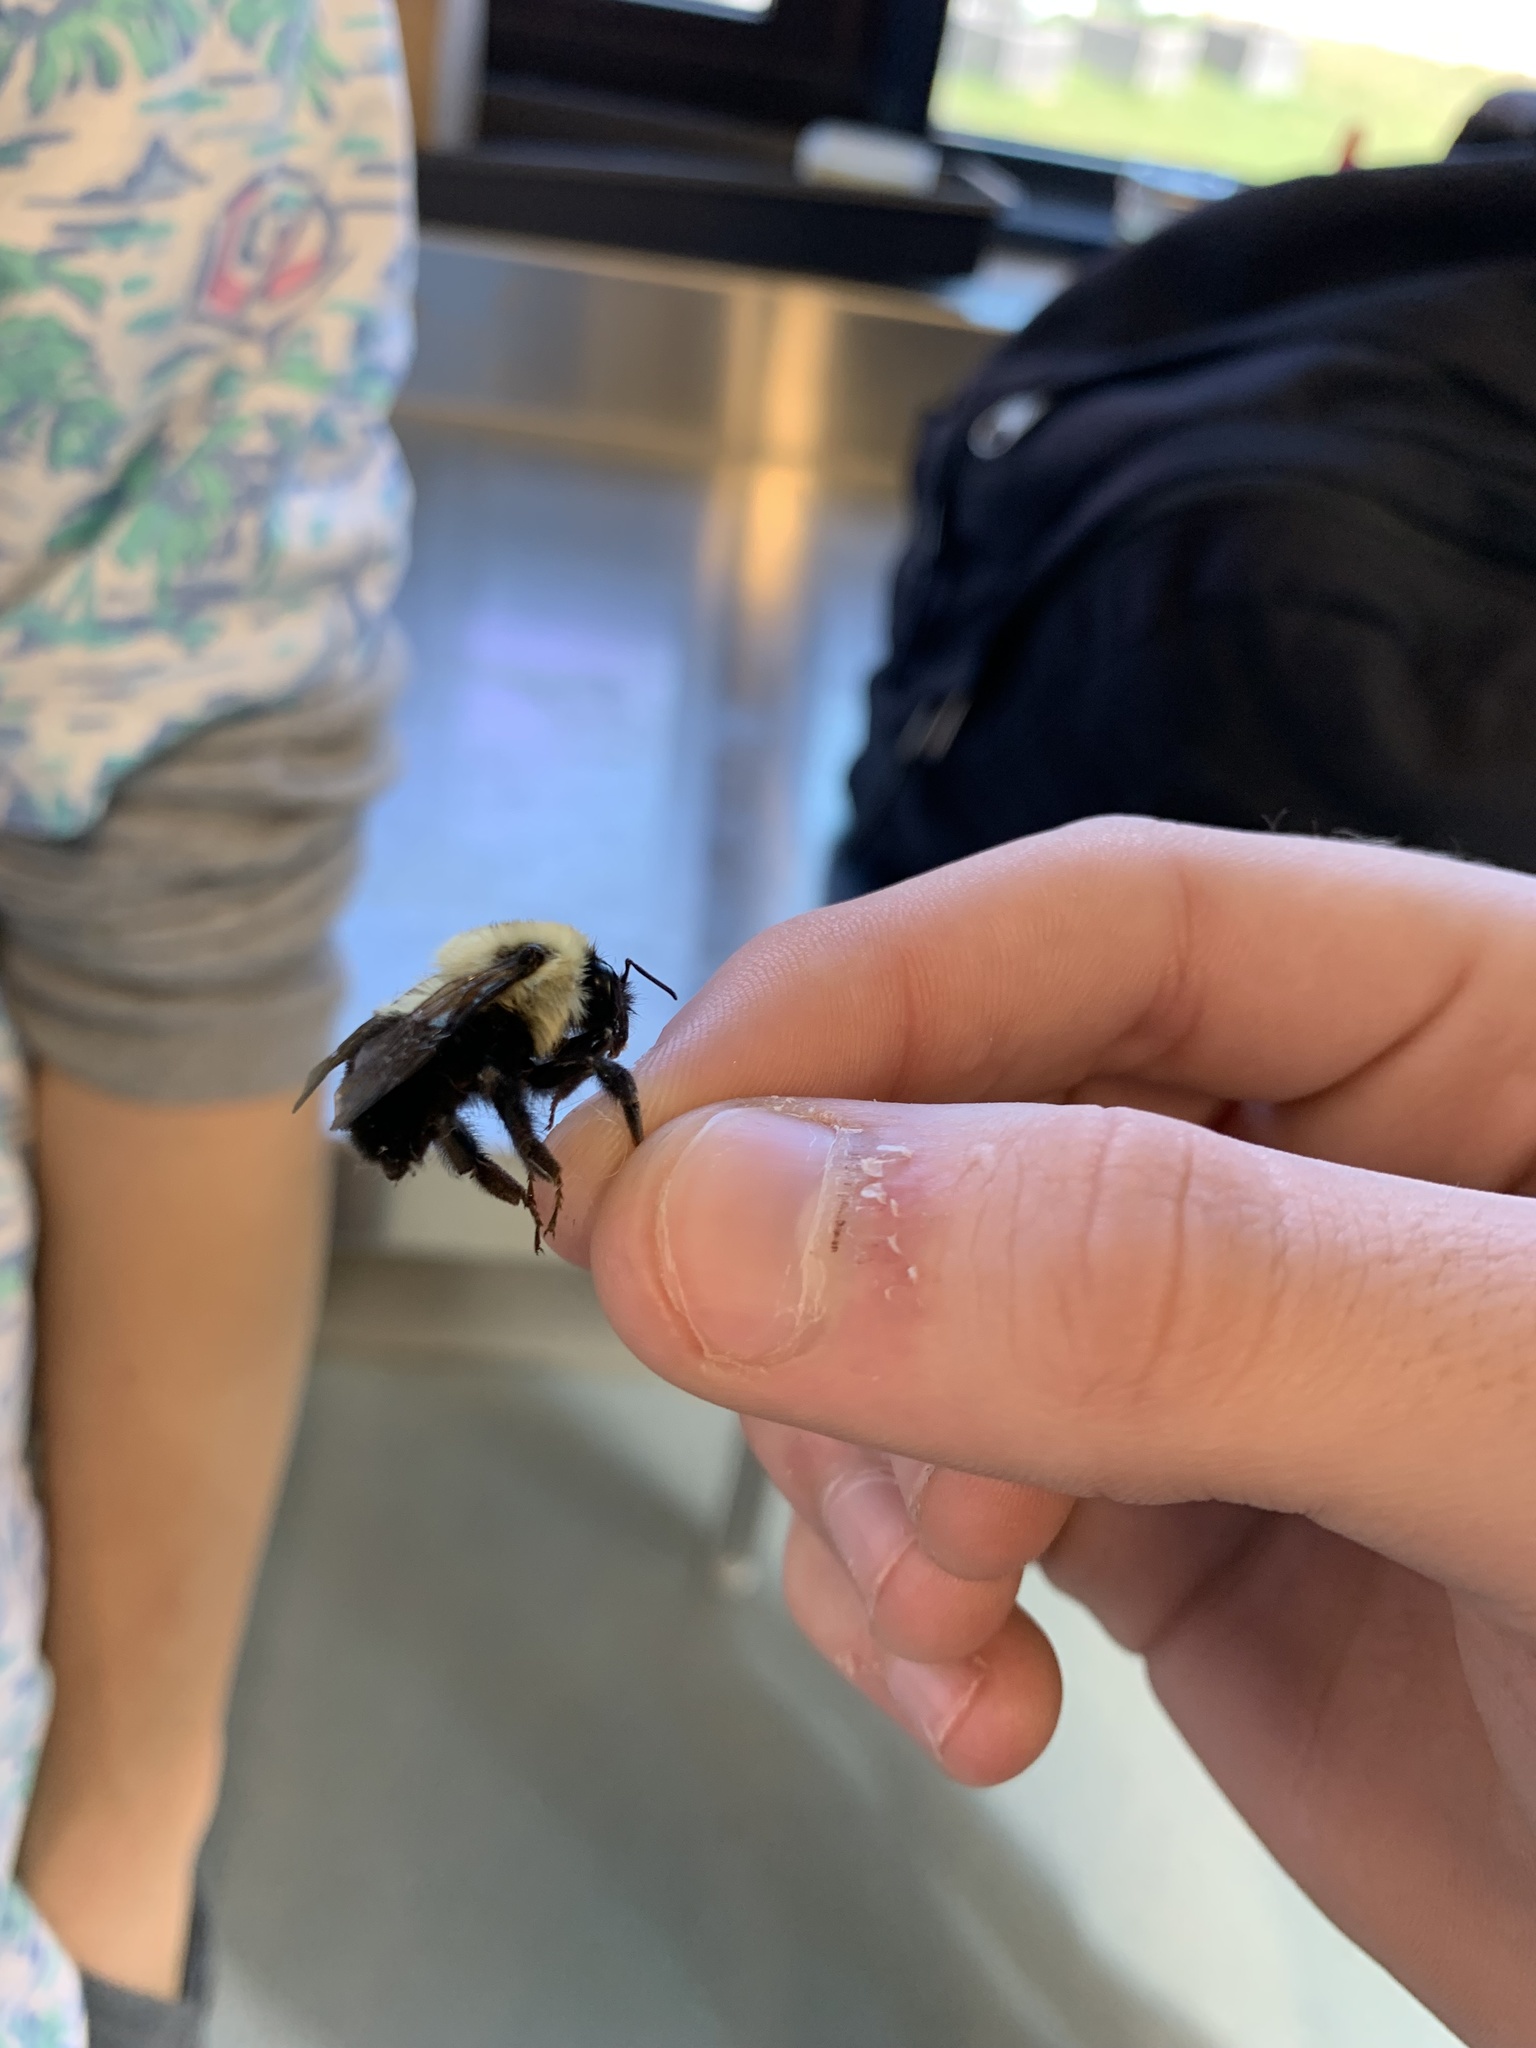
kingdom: Animalia
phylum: Arthropoda
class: Insecta
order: Hymenoptera
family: Apidae
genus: Bombus
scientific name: Bombus griseocollis
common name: Brown-belted bumble bee
